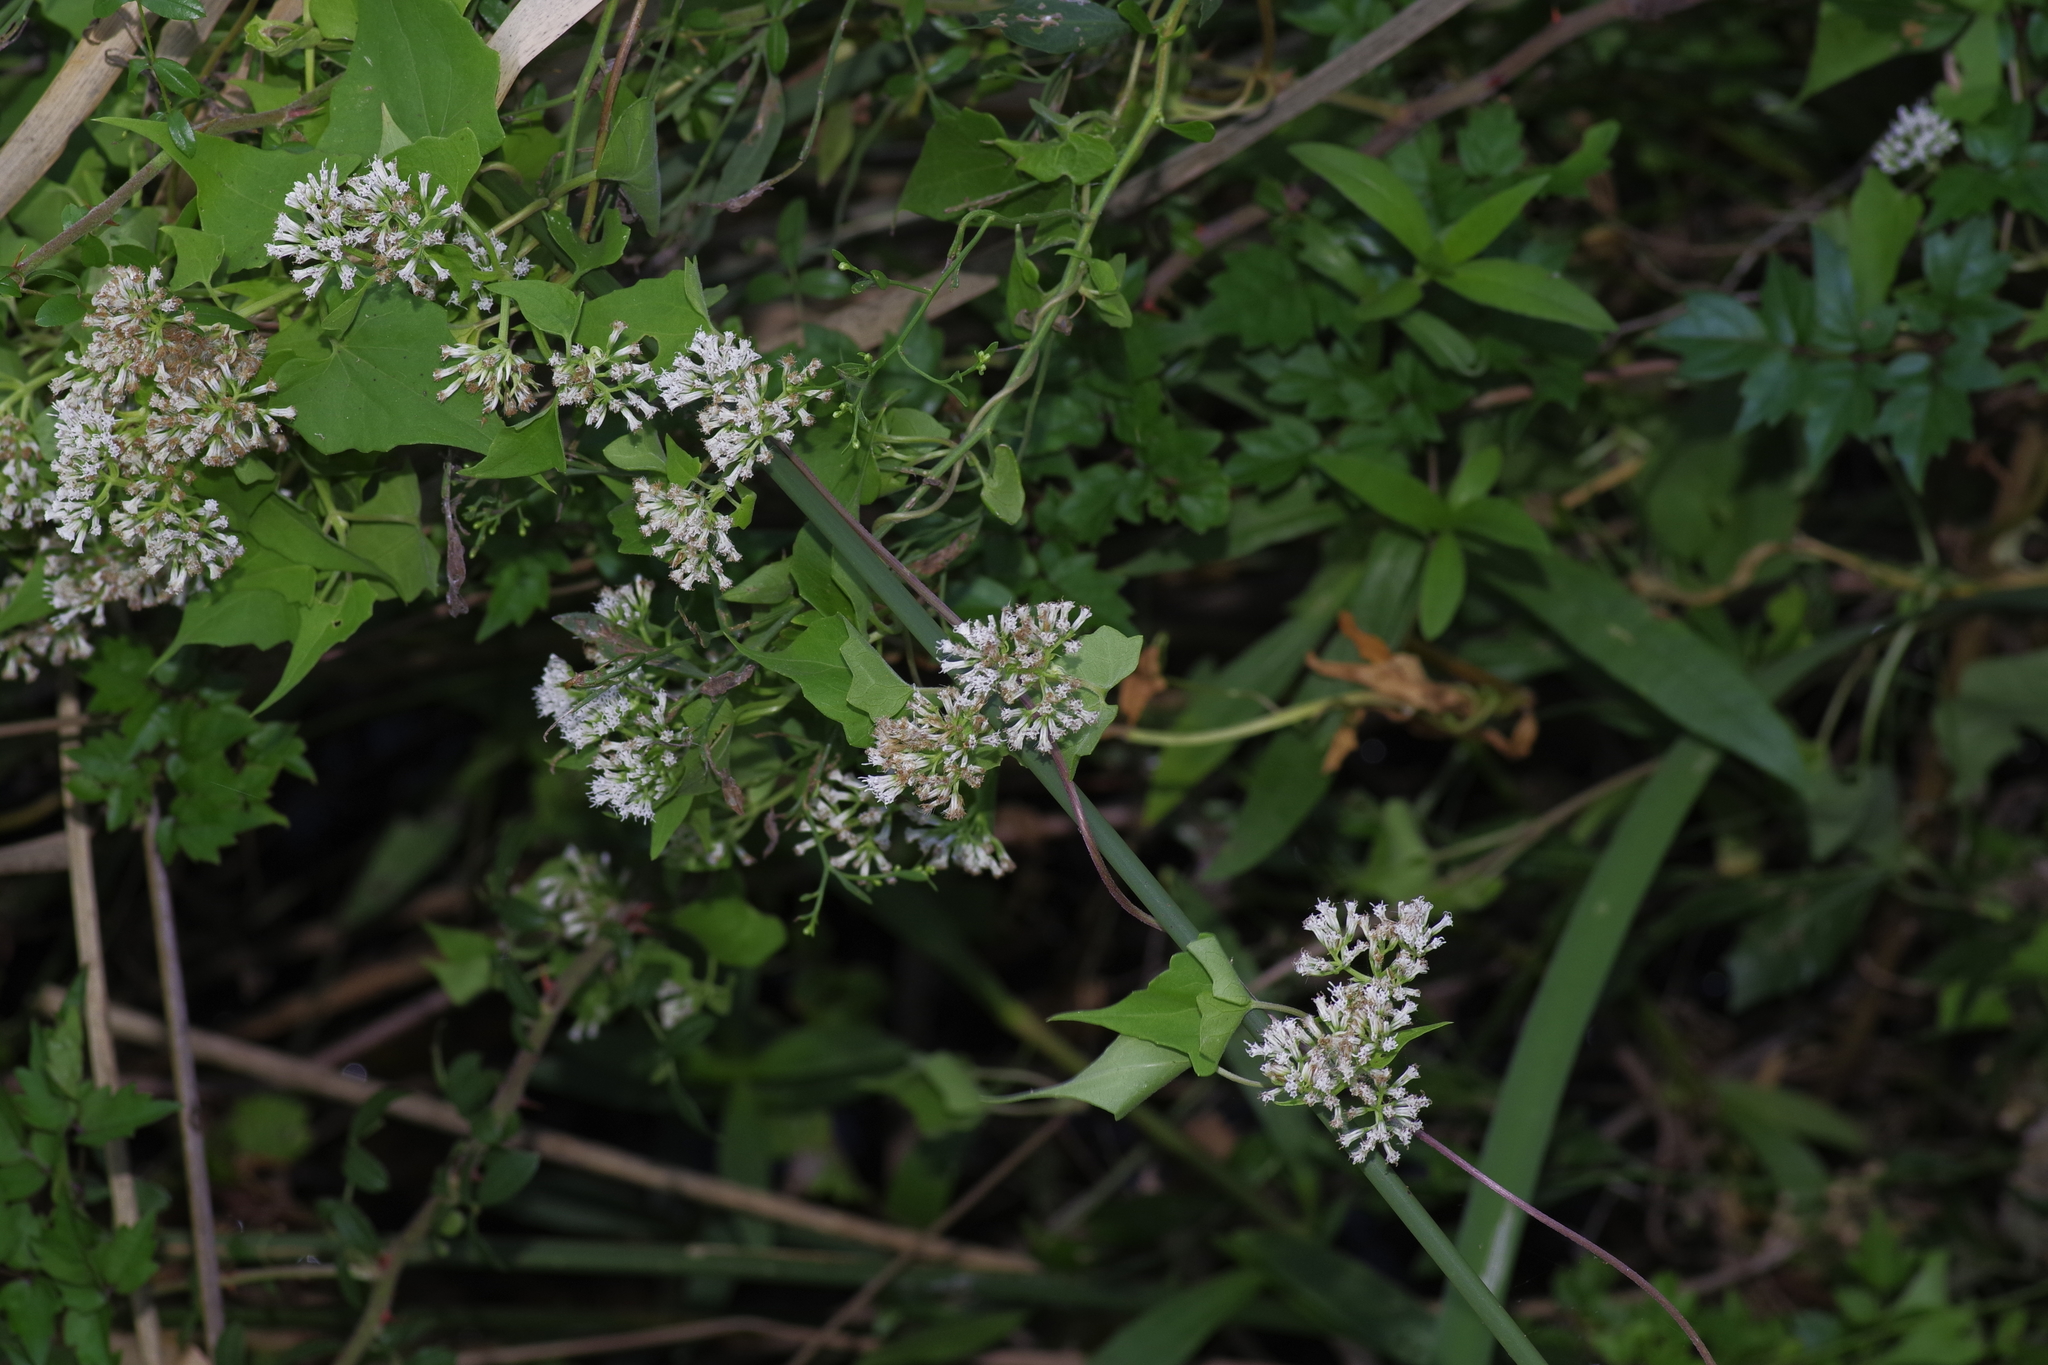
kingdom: Plantae
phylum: Tracheophyta
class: Magnoliopsida
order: Asterales
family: Asteraceae
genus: Mikania
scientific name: Mikania scandens
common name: Climbing hempvine
